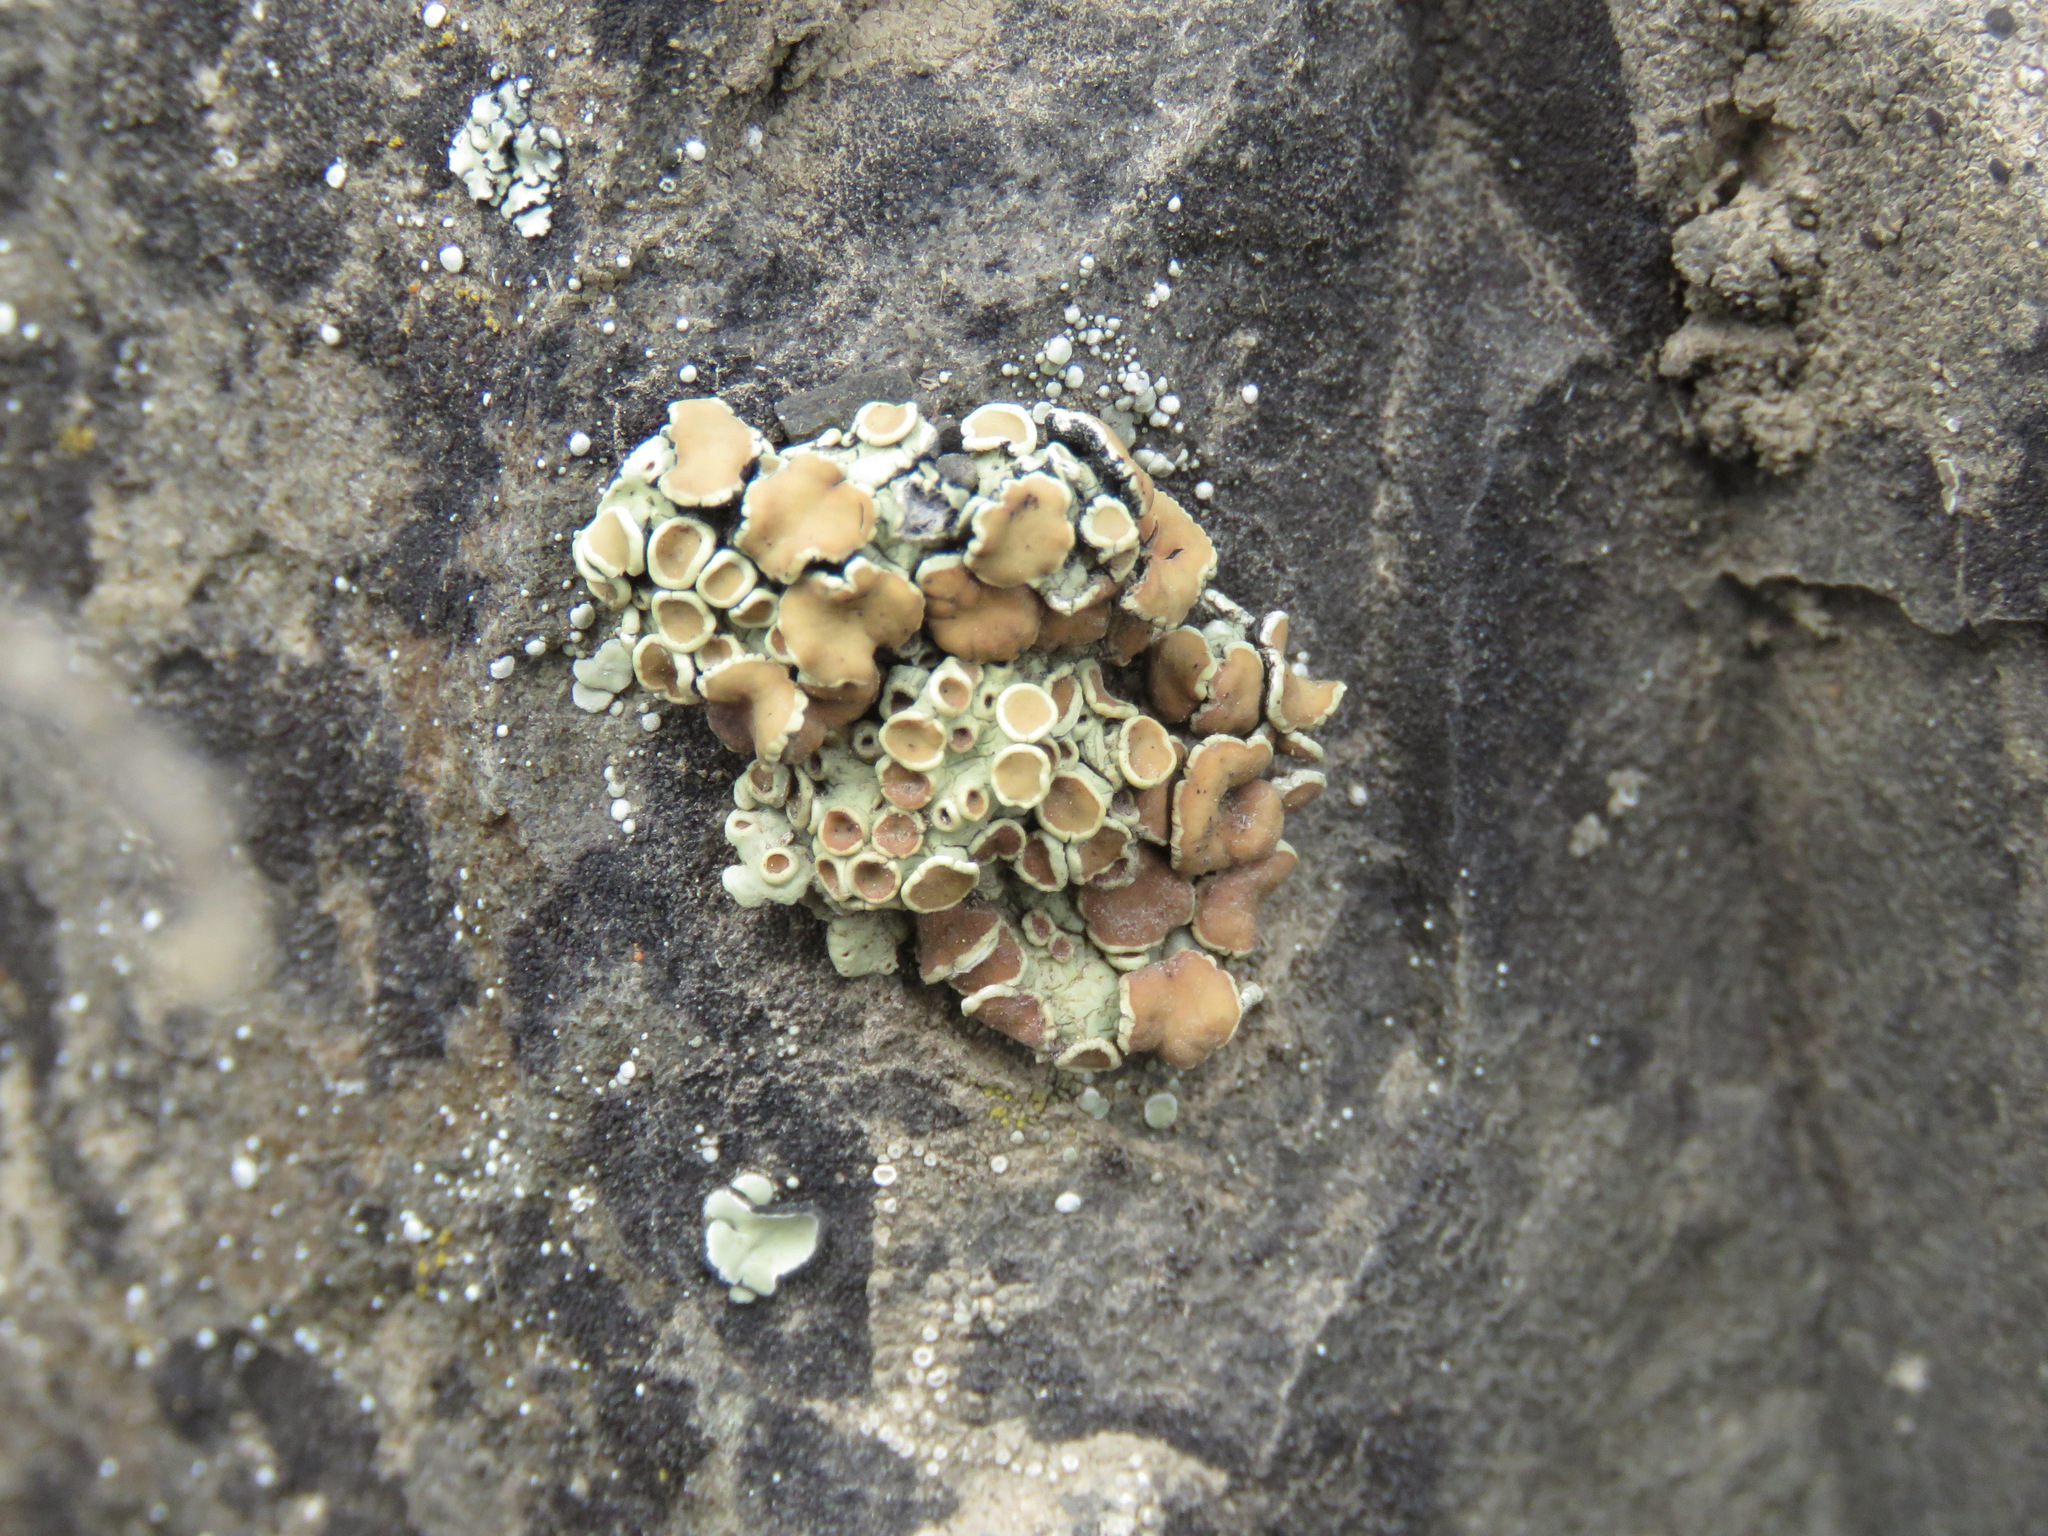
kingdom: Fungi
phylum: Ascomycota
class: Lecanoromycetes
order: Lecanorales
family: Lecanoraceae
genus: Omphalodina
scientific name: Omphalodina chrysoleuca
